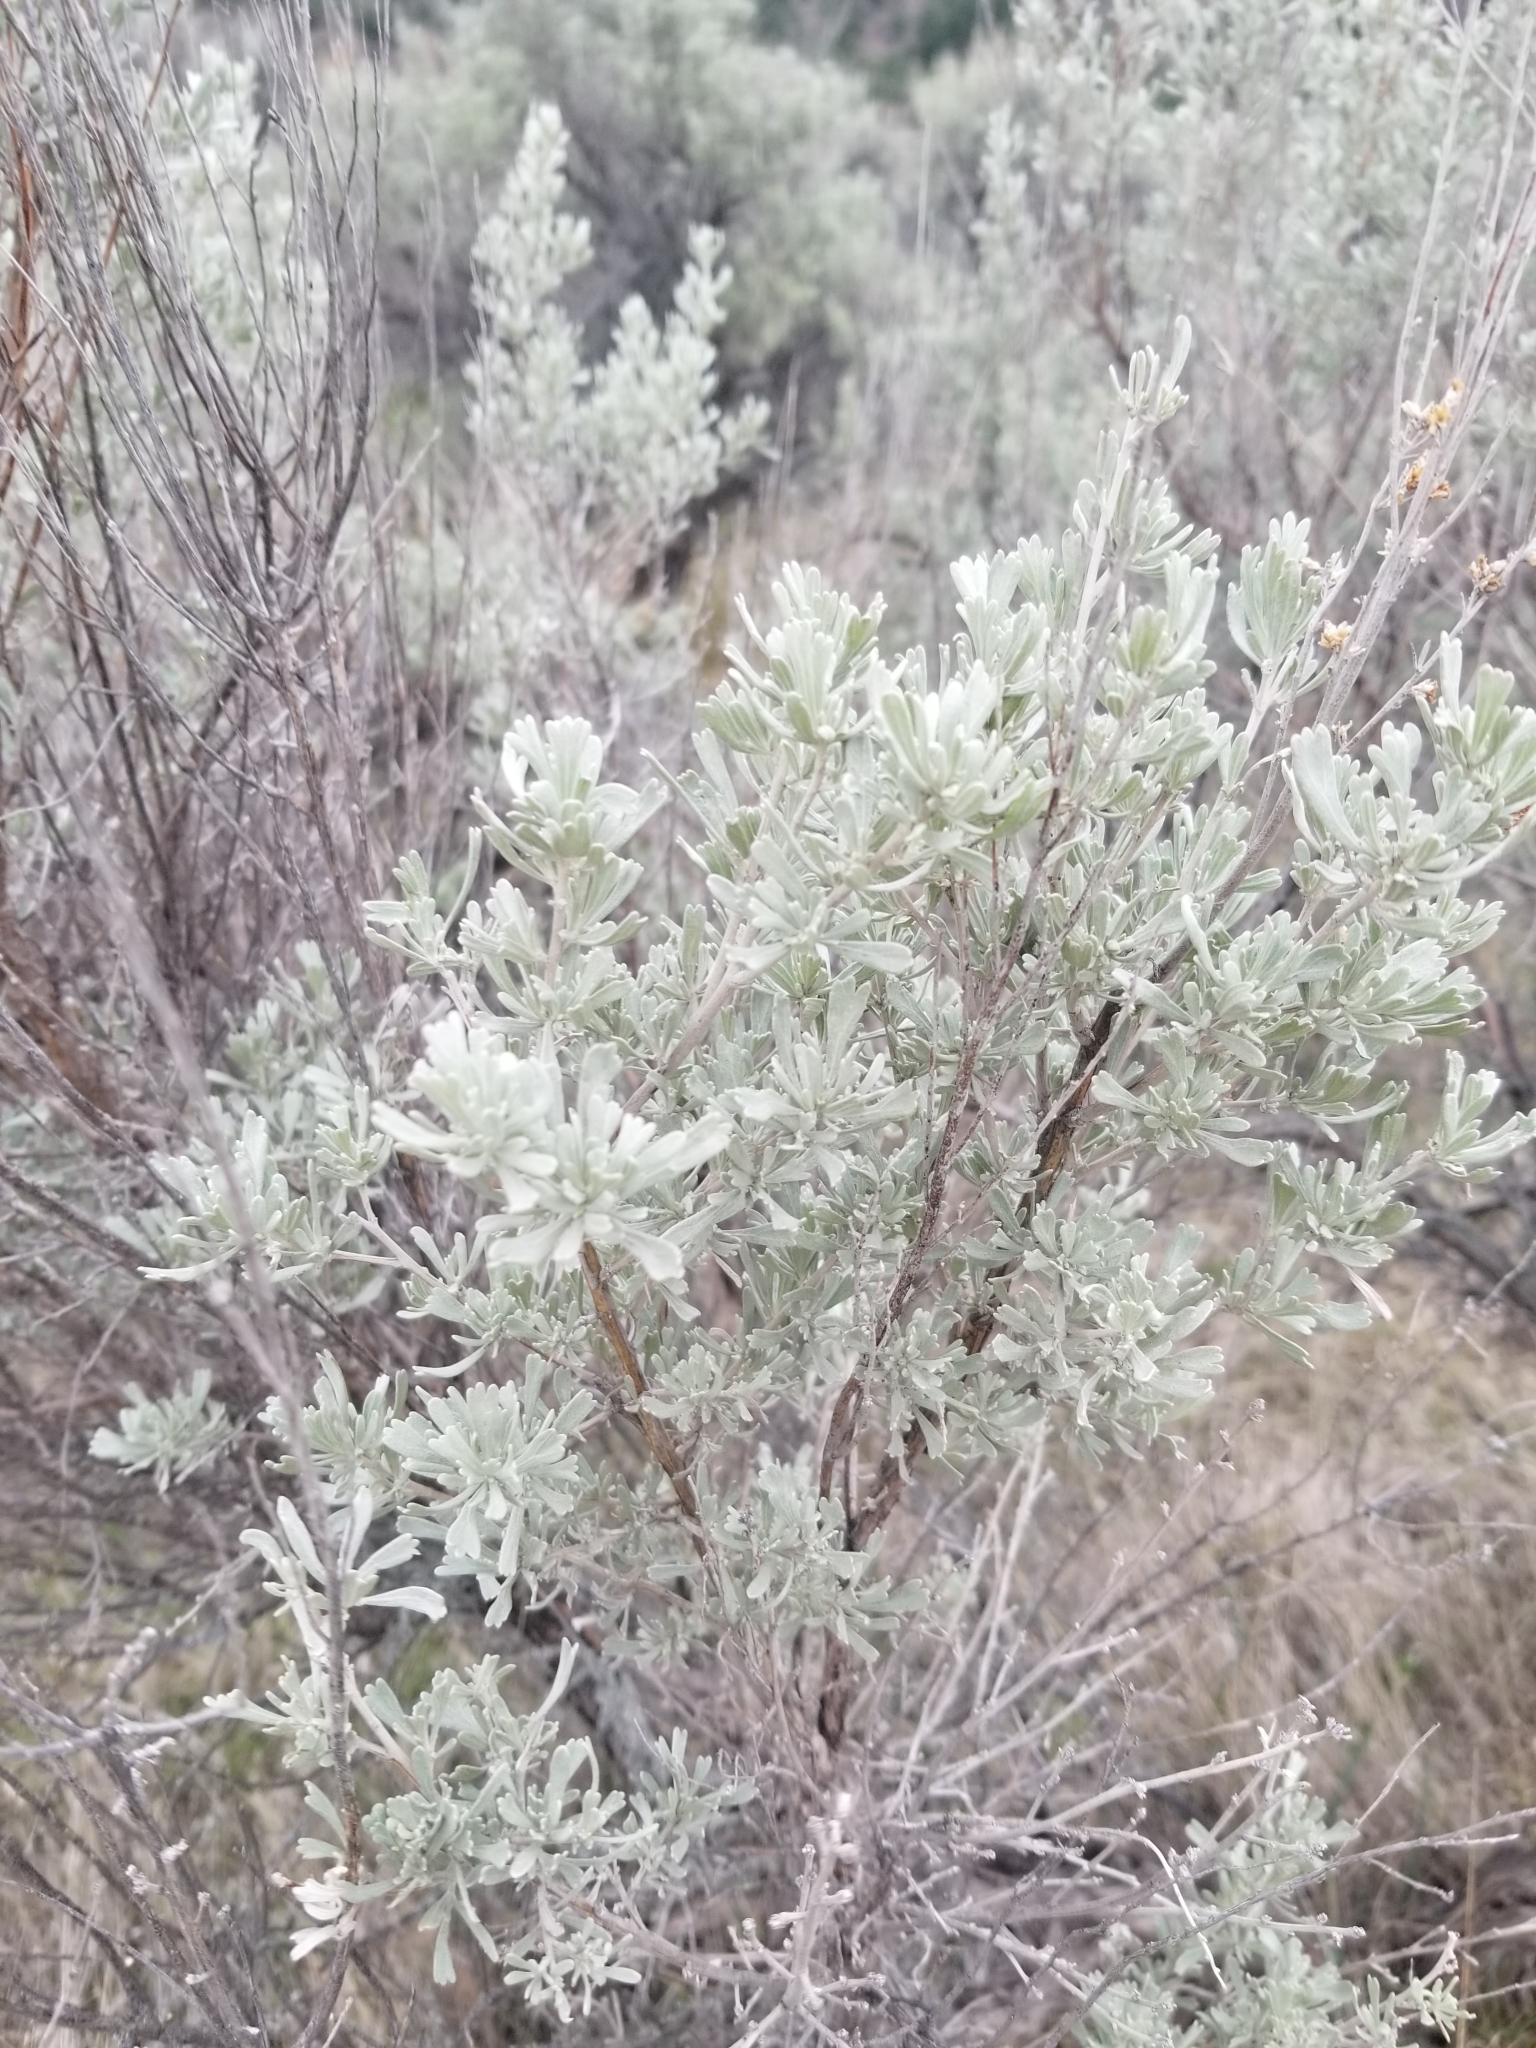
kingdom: Plantae
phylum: Tracheophyta
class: Magnoliopsida
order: Asterales
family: Asteraceae
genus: Artemisia
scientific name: Artemisia tridentata
